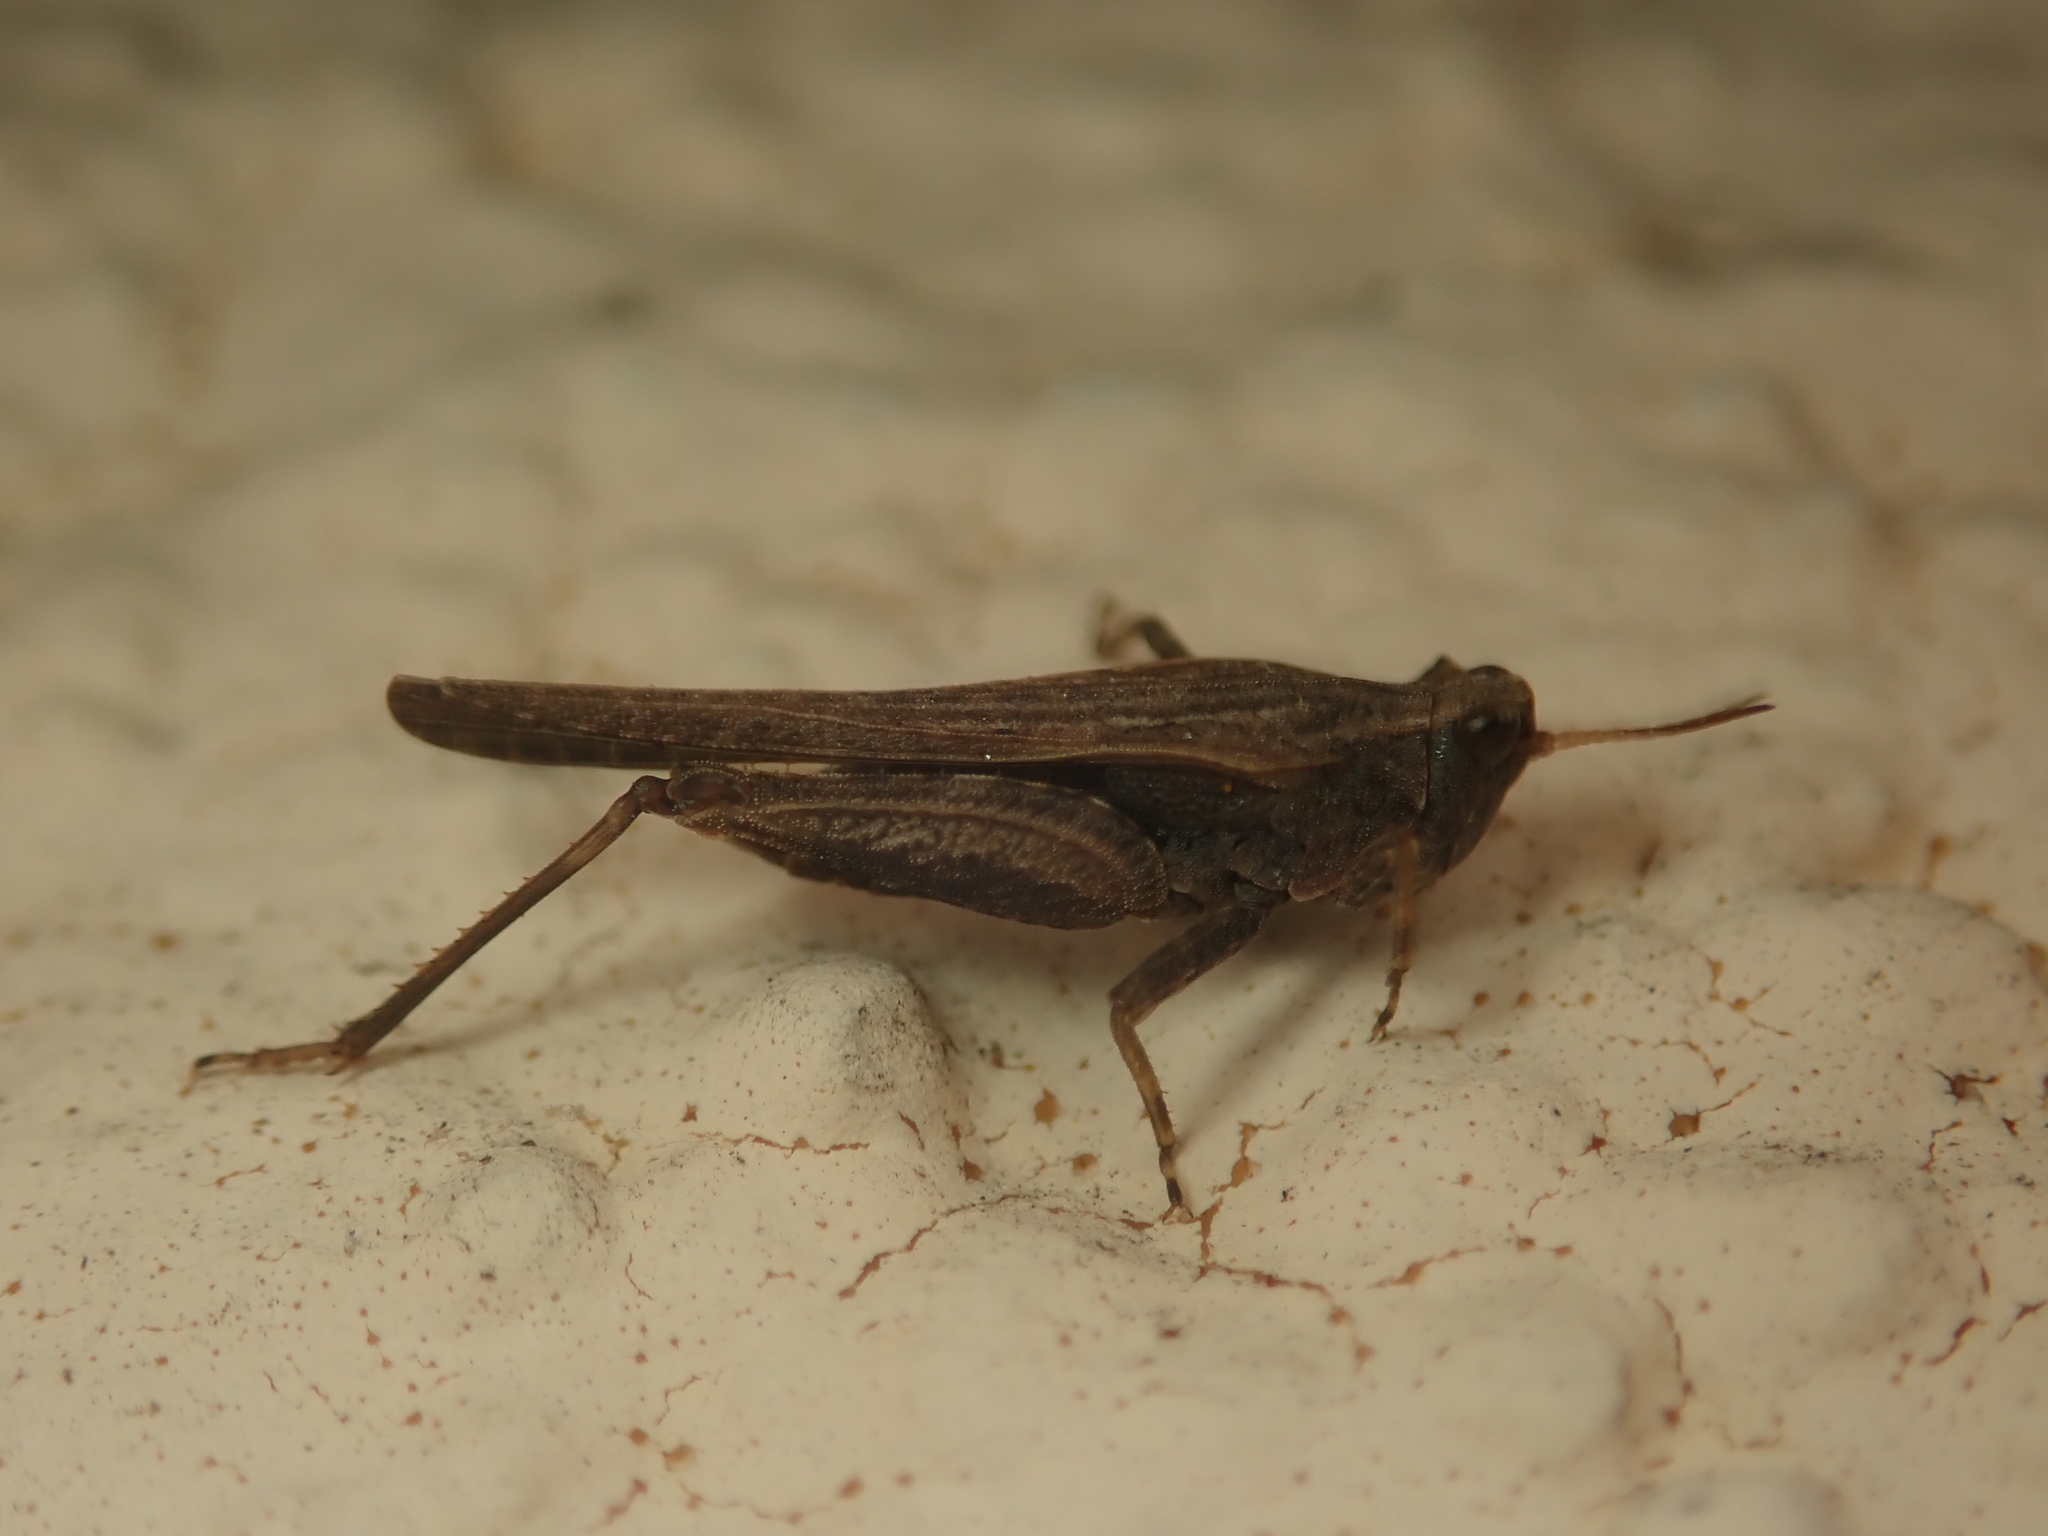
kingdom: Animalia
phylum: Arthropoda
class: Insecta
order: Orthoptera
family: Tetrigidae
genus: Tetrix
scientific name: Tetrix subulata
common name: Slender ground-hopper
